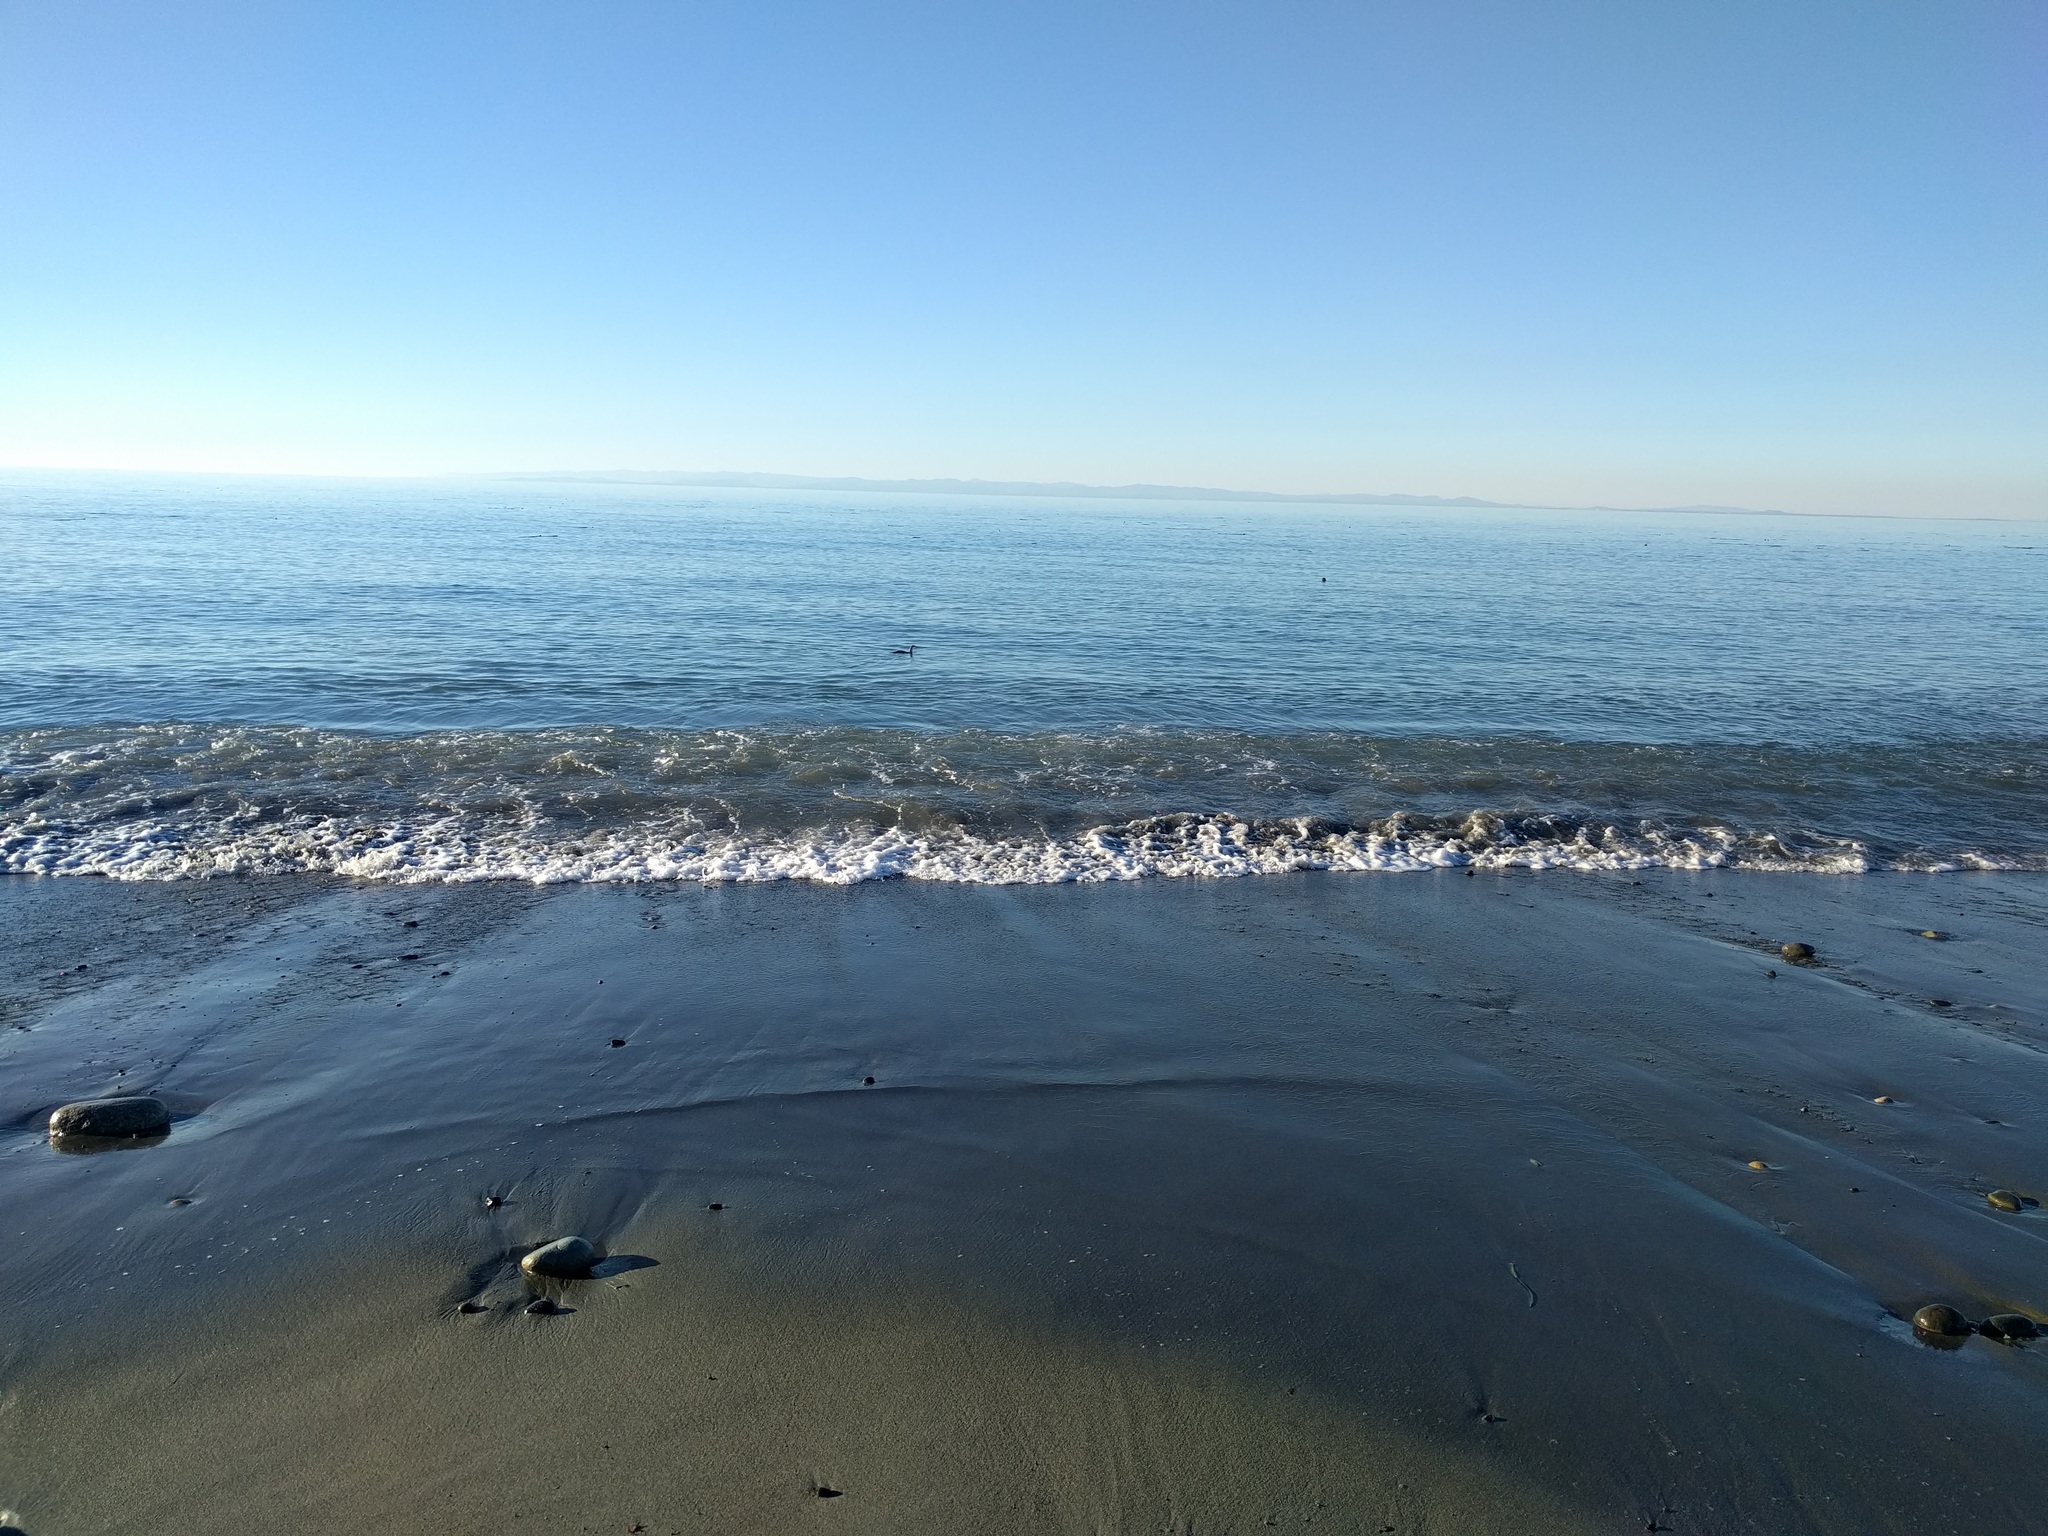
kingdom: Animalia
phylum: Chordata
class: Aves
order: Gaviiformes
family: Gaviidae
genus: Gavia
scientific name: Gavia stellata
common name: Red-throated loon
